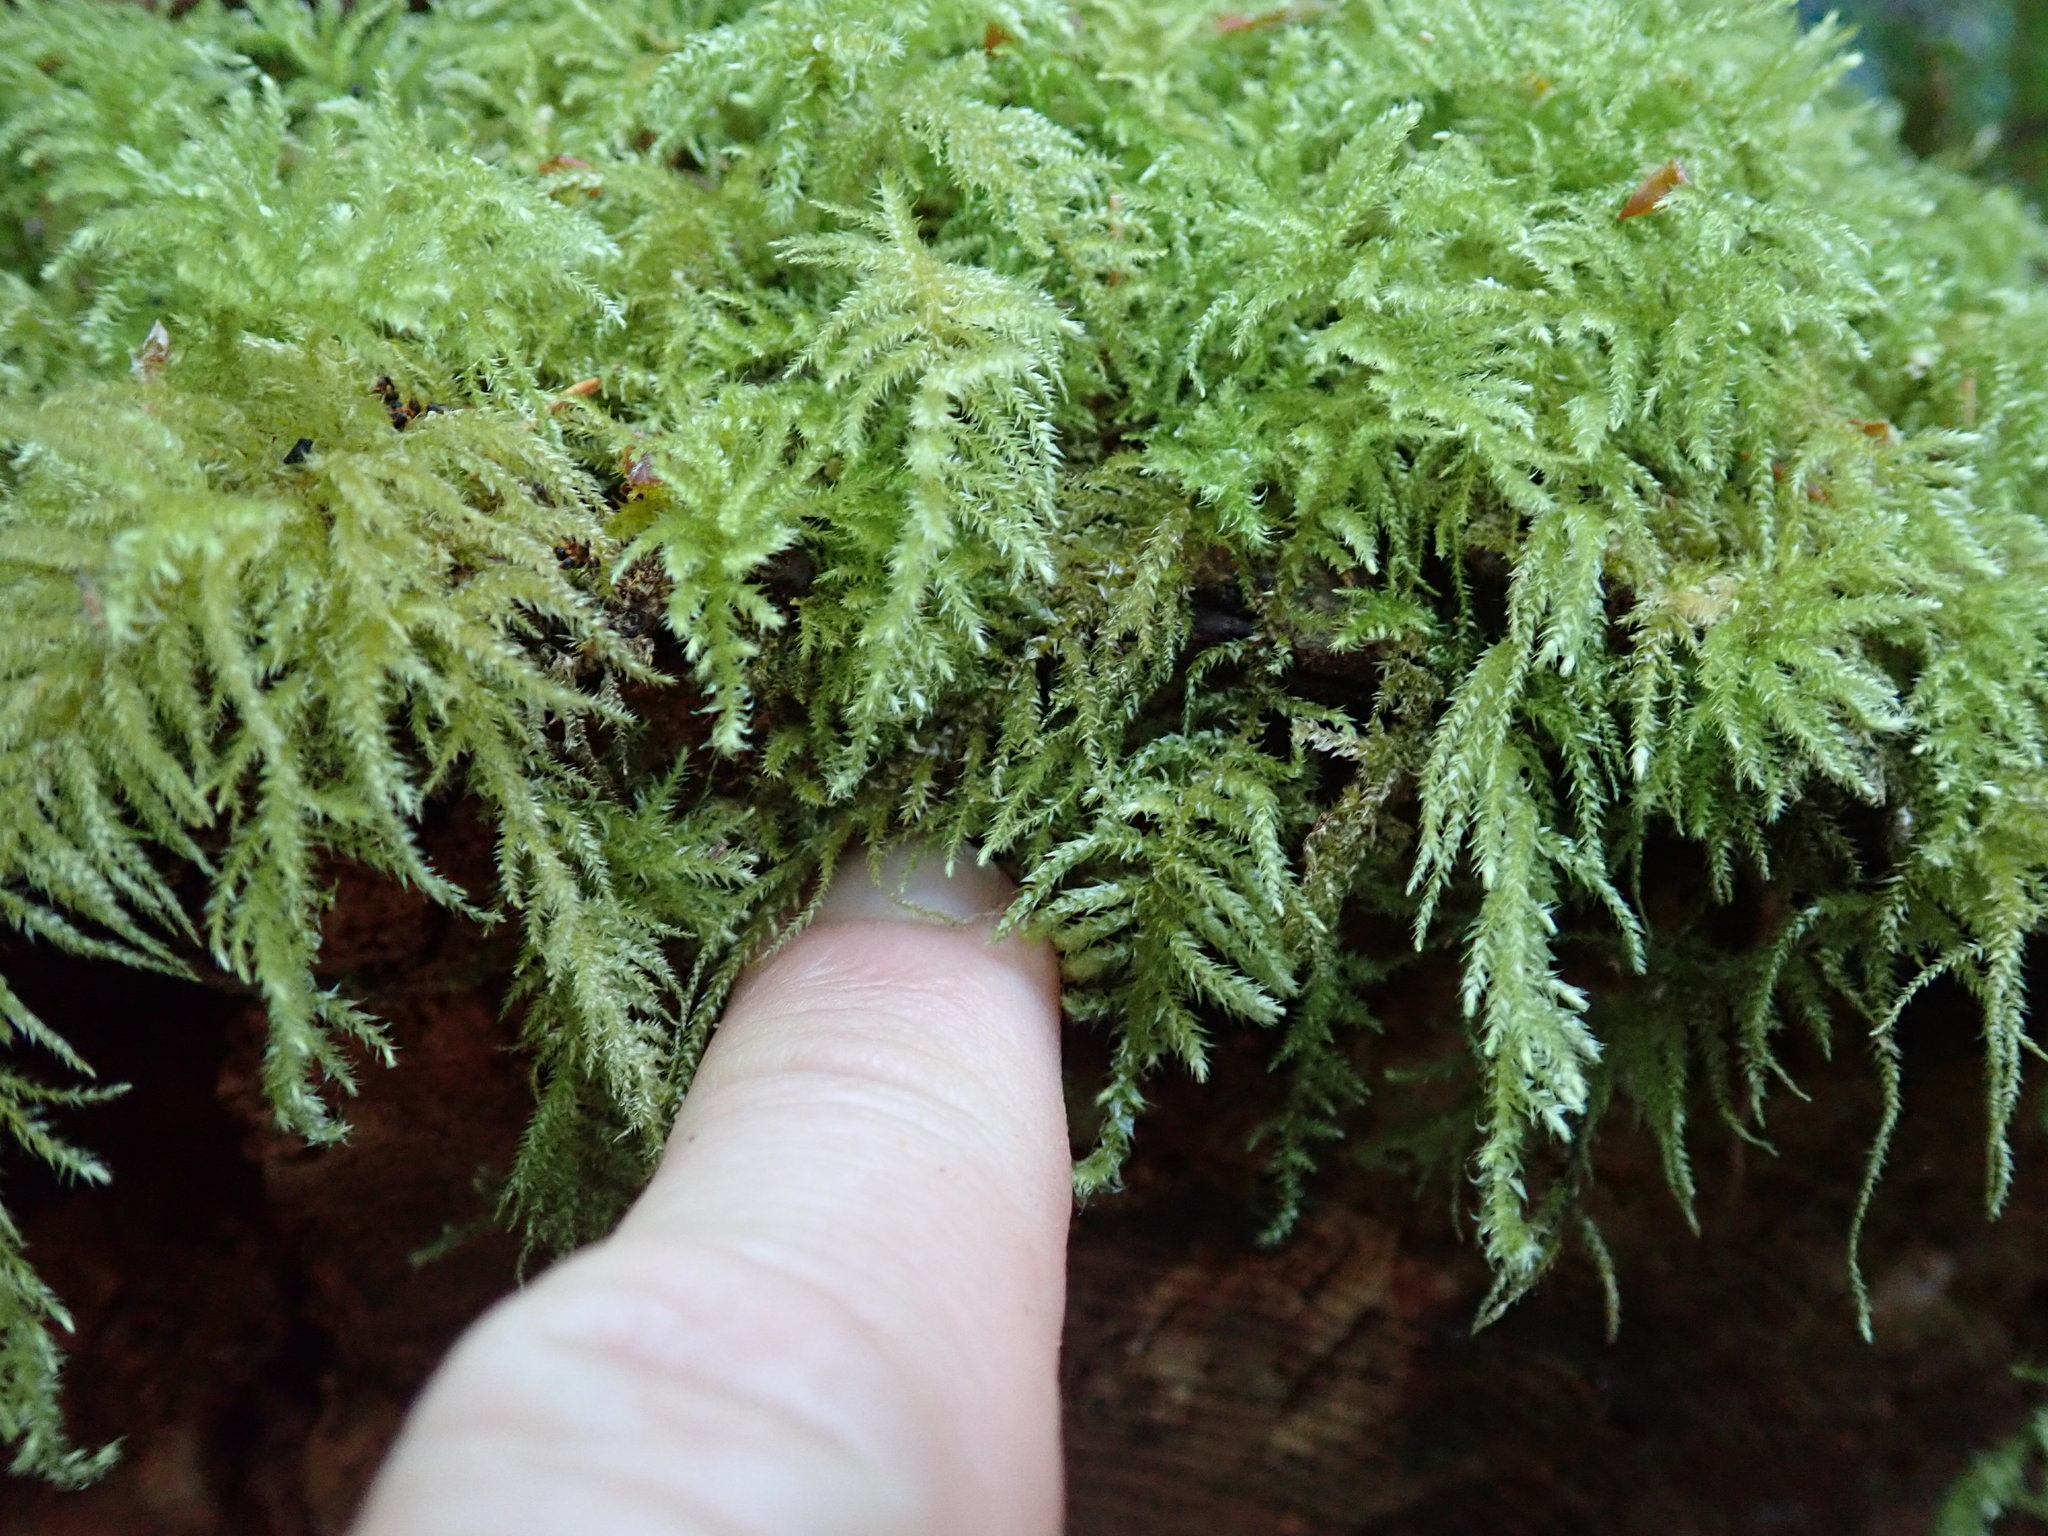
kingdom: Plantae
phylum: Bryophyta
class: Bryopsida
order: Hypnales
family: Brachytheciaceae
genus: Kindbergia
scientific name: Kindbergia oregana
